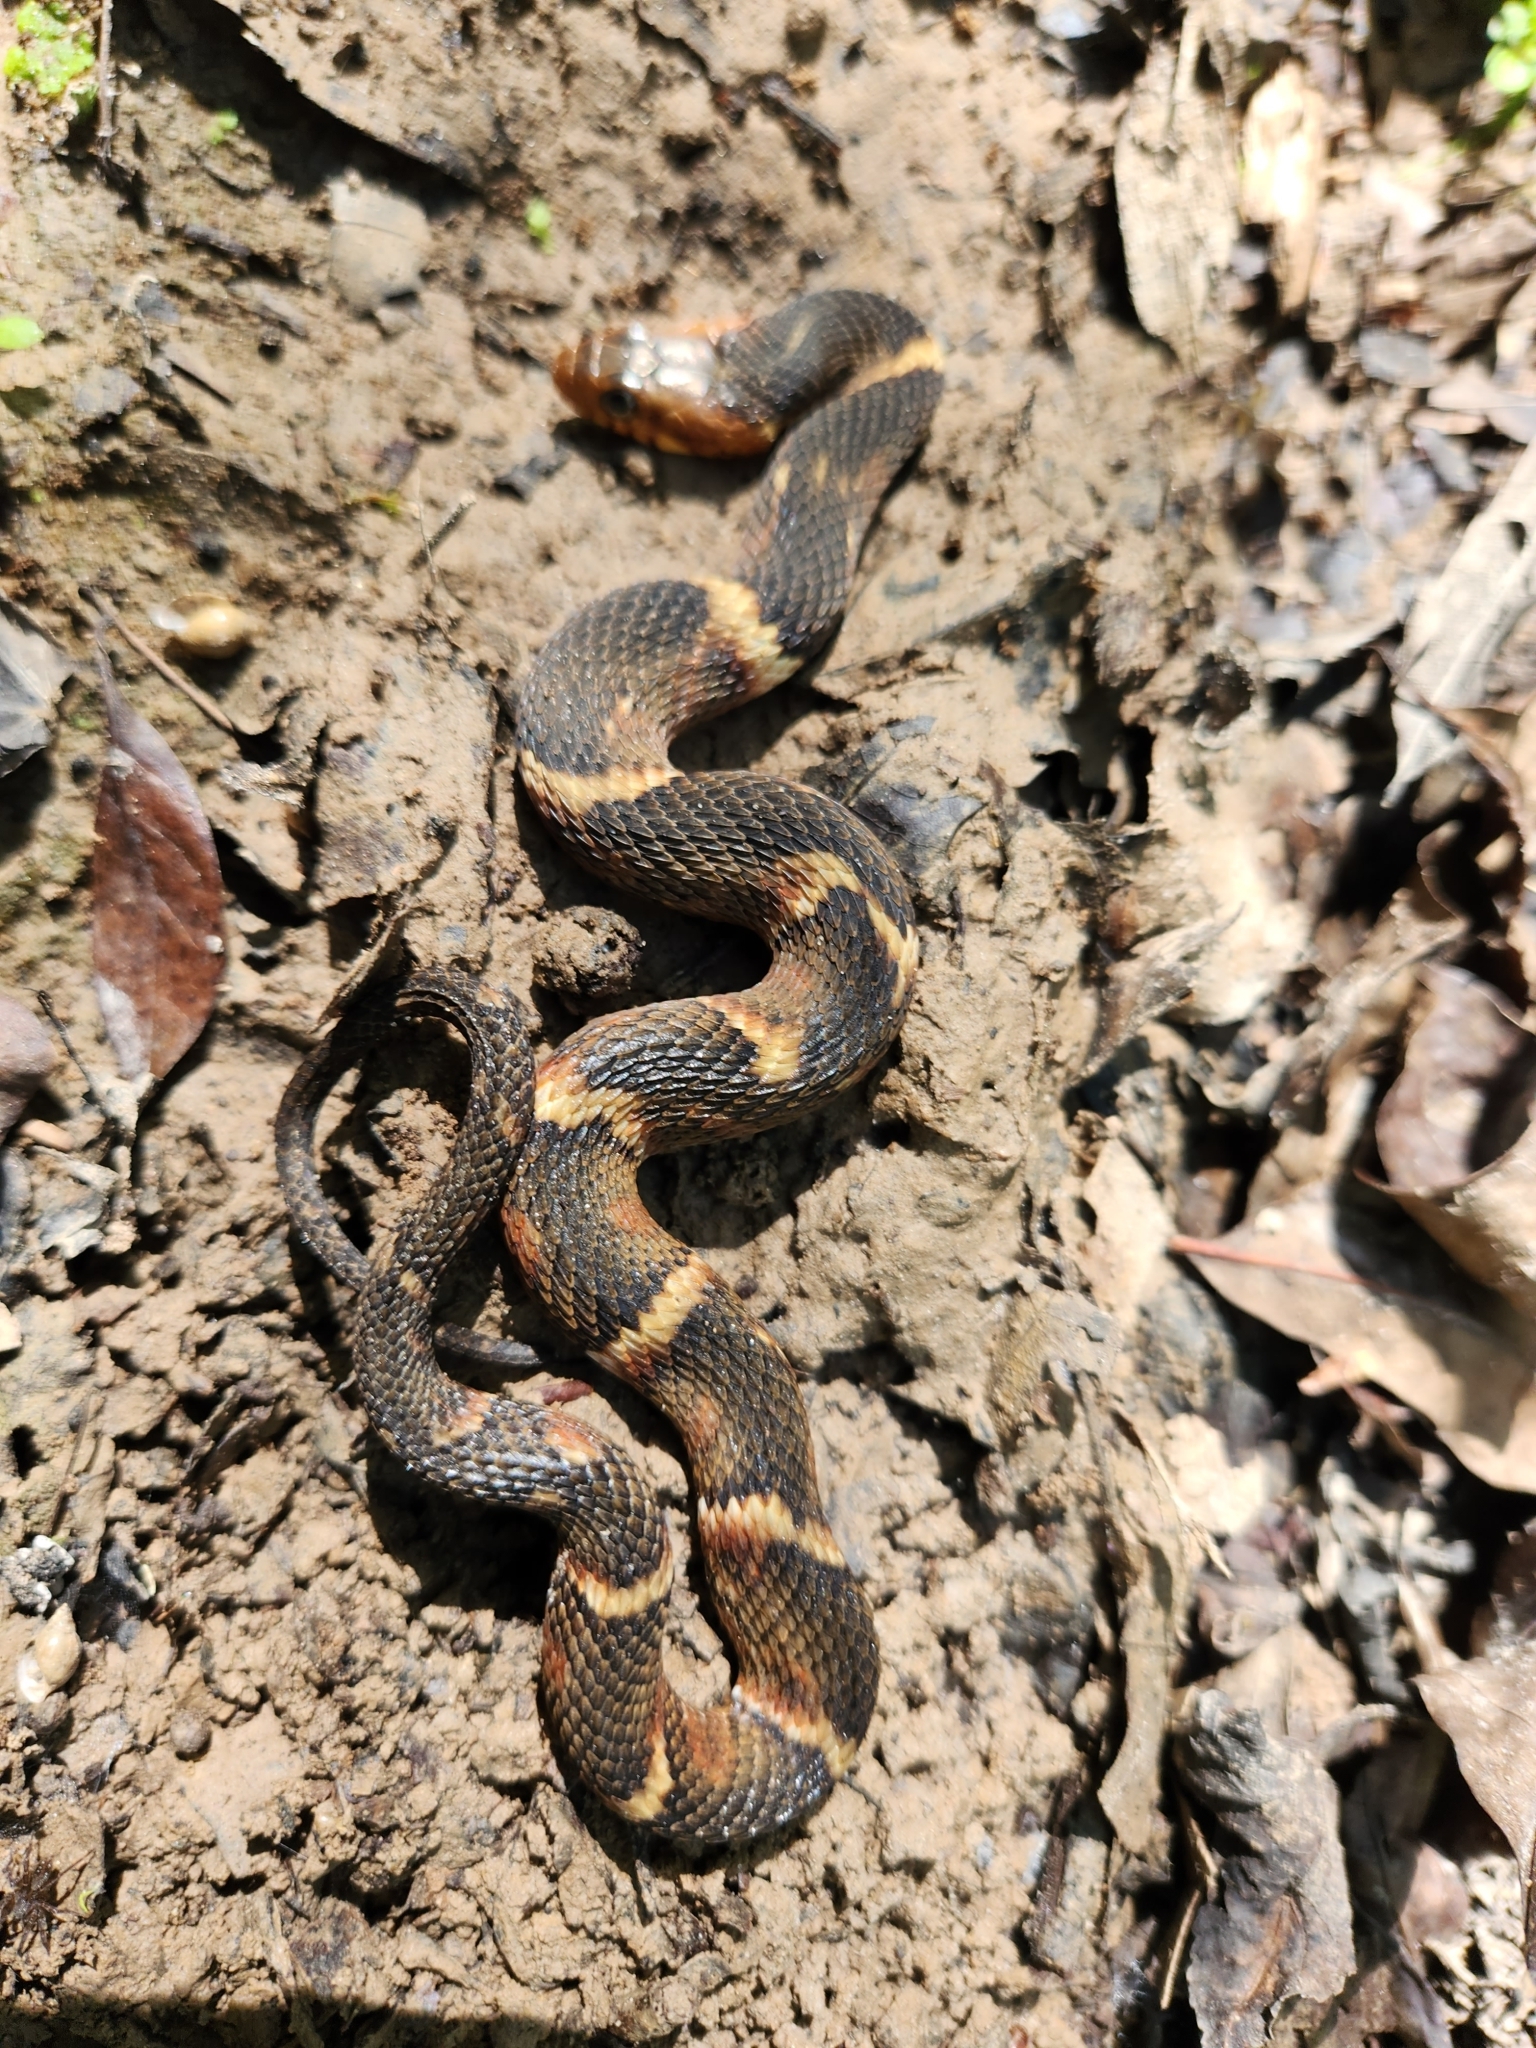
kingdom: Animalia
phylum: Chordata
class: Squamata
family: Colubridae
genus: Nerodia
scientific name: Nerodia fasciata
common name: Southern water snake
